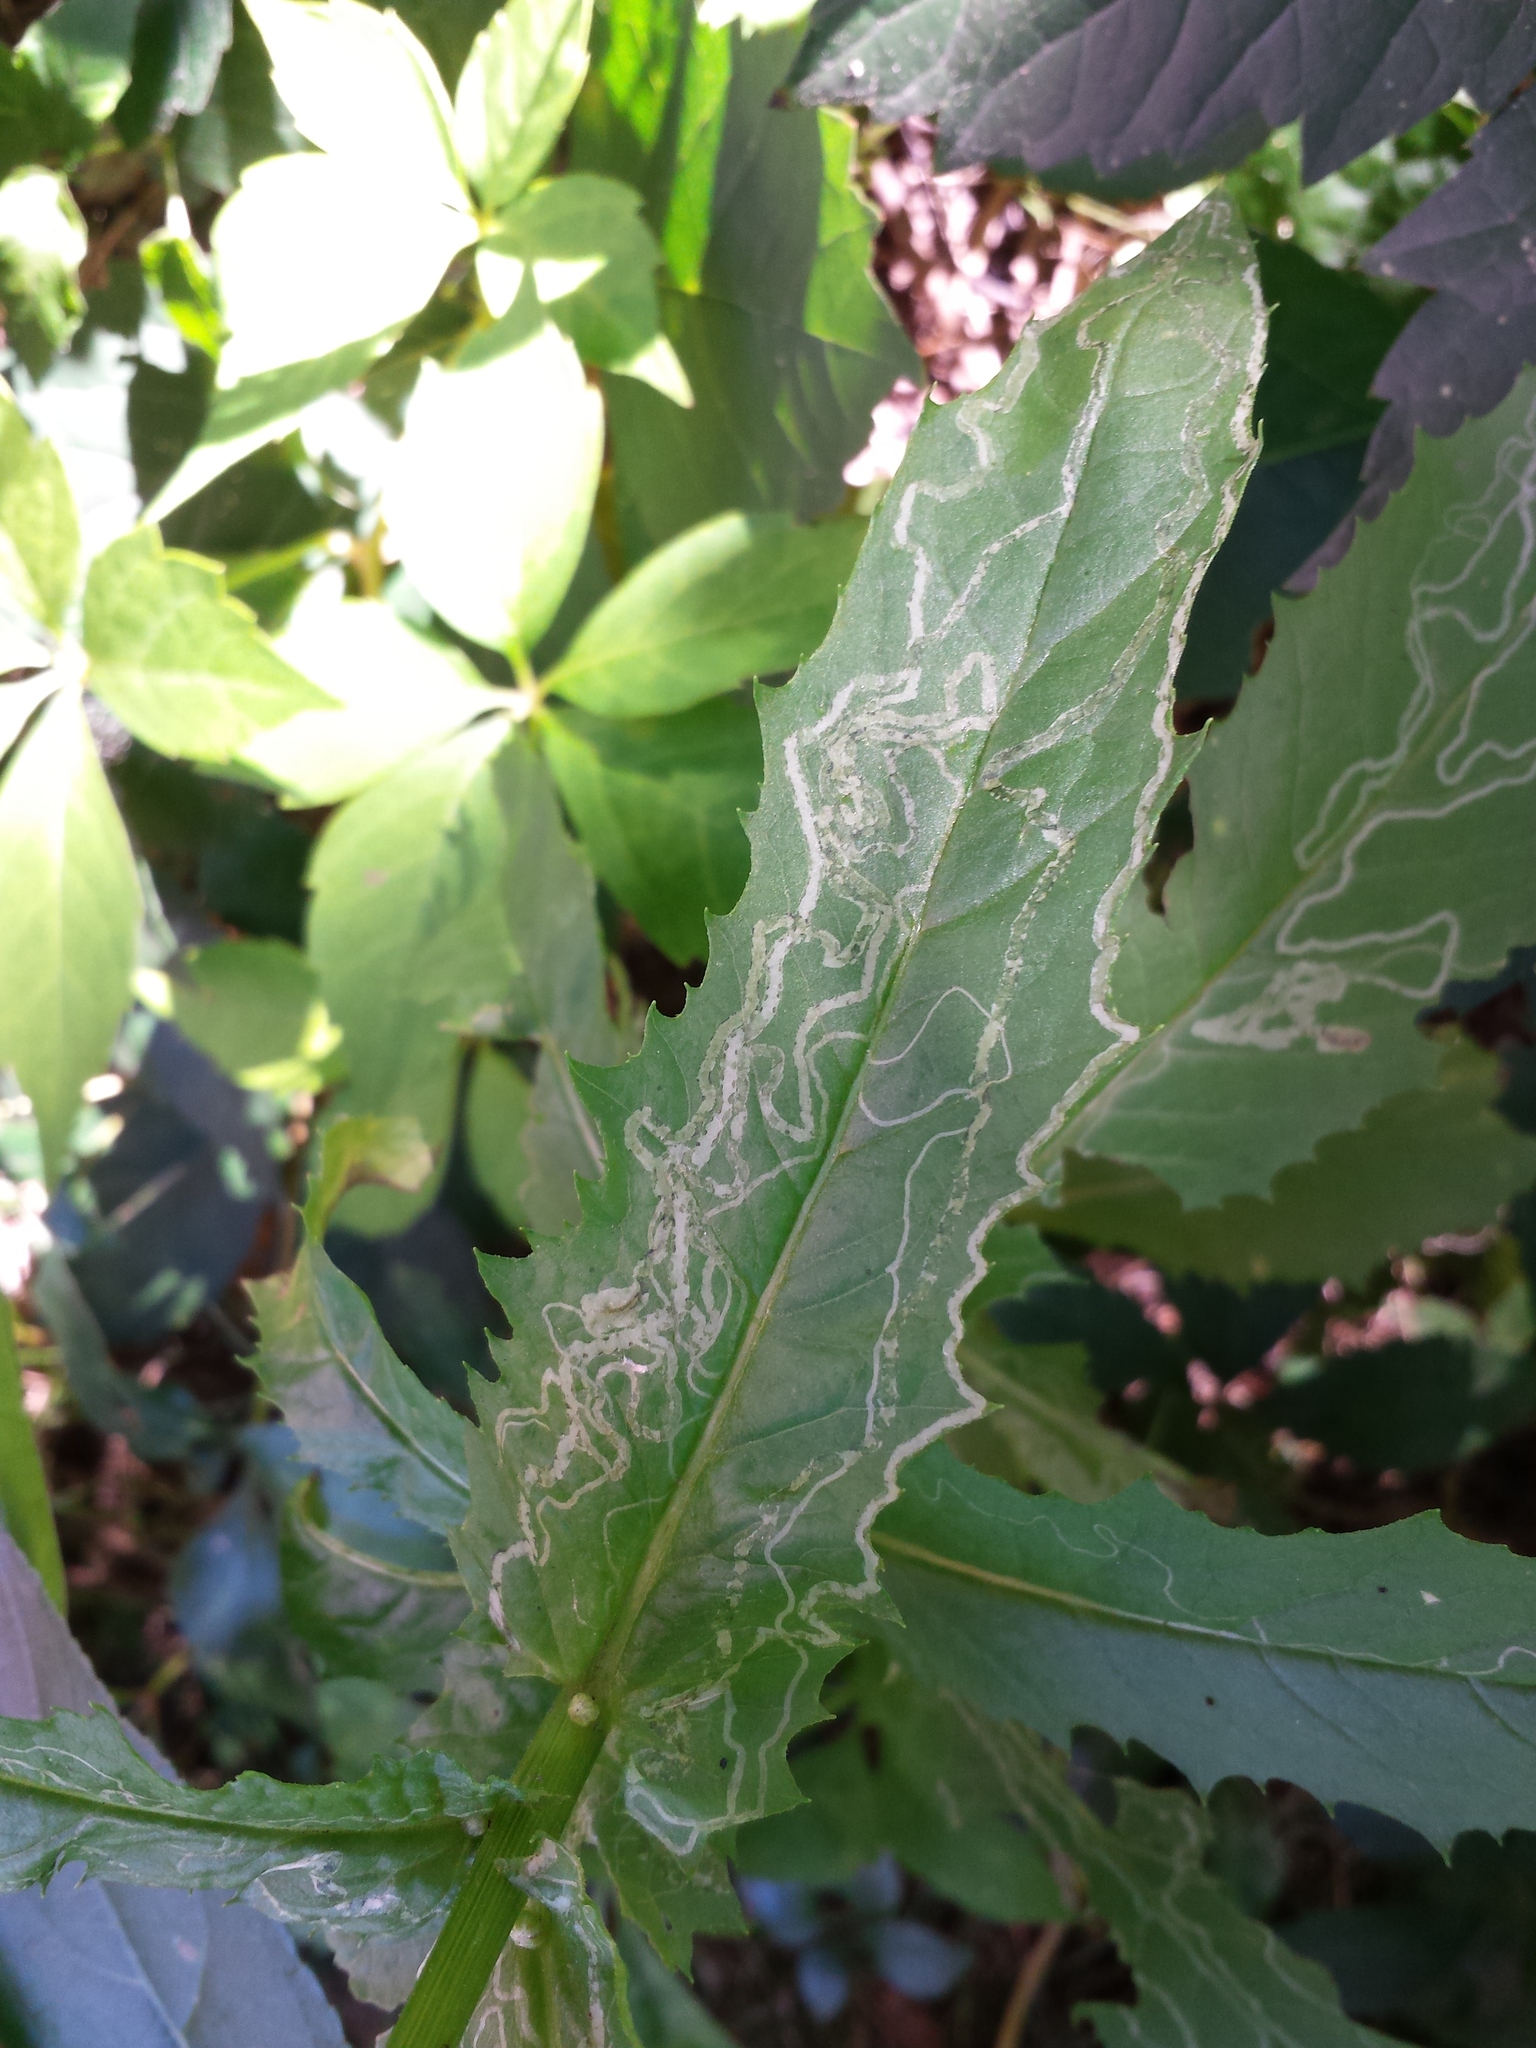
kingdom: Animalia
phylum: Arthropoda
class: Insecta
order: Lepidoptera
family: Gracillariidae
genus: Phyllocnistis
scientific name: Phyllocnistis insignis
